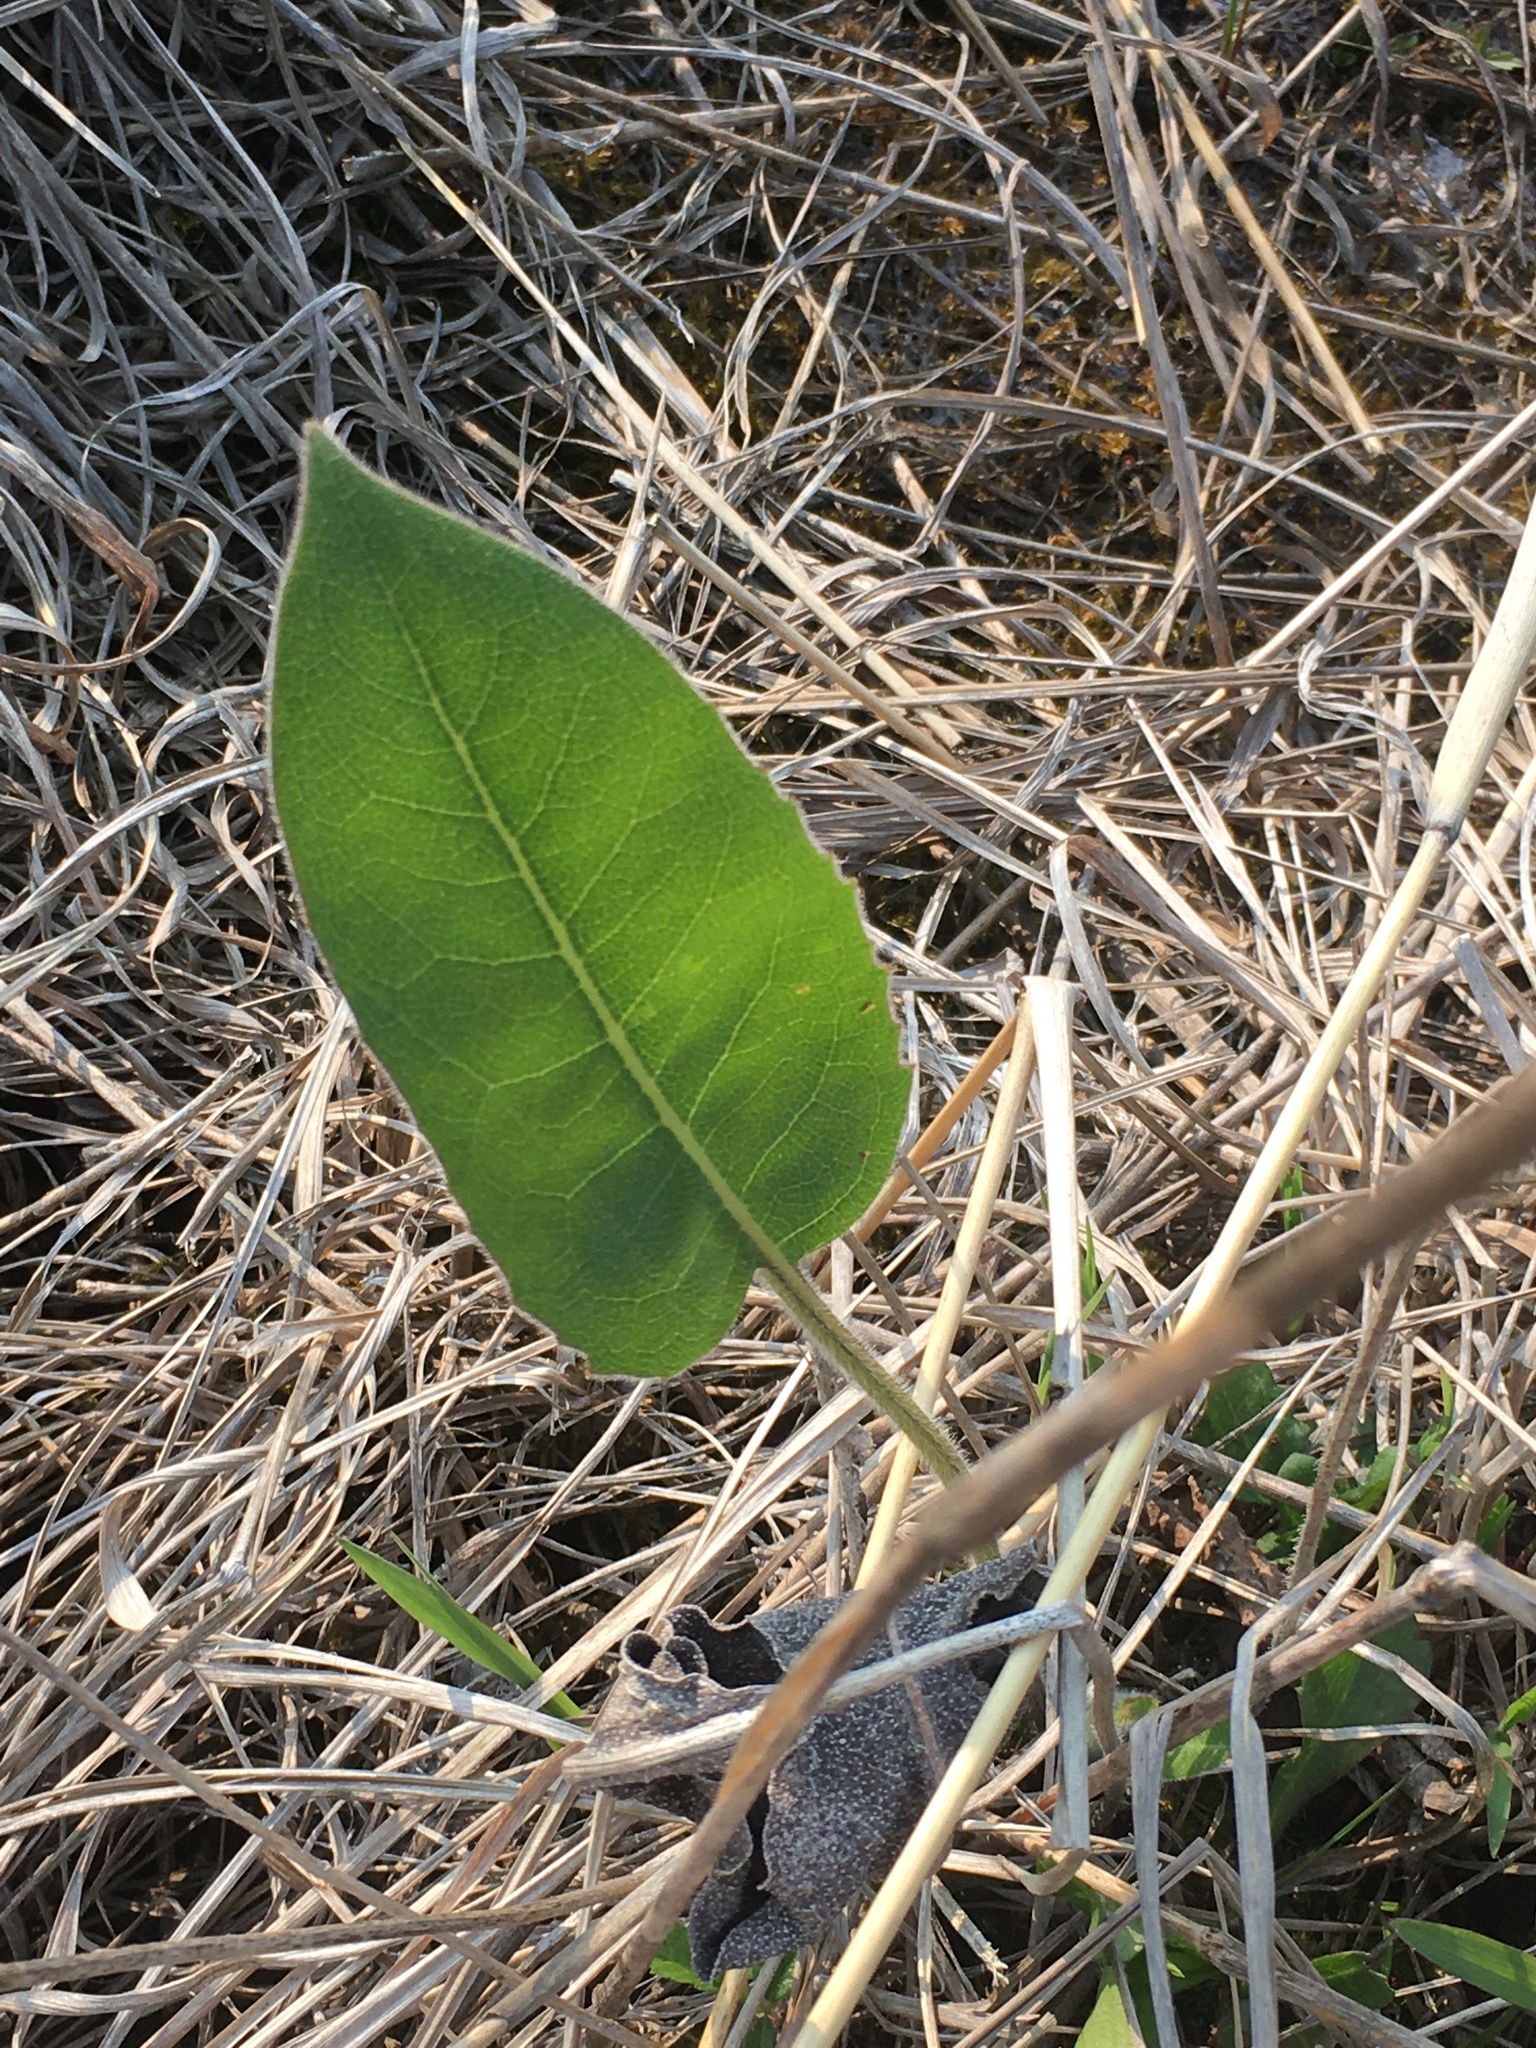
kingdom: Plantae
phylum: Tracheophyta
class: Magnoliopsida
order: Asterales
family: Asteraceae
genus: Silphium
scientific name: Silphium terebinthinaceum
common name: Basal-leaf rosinweed
